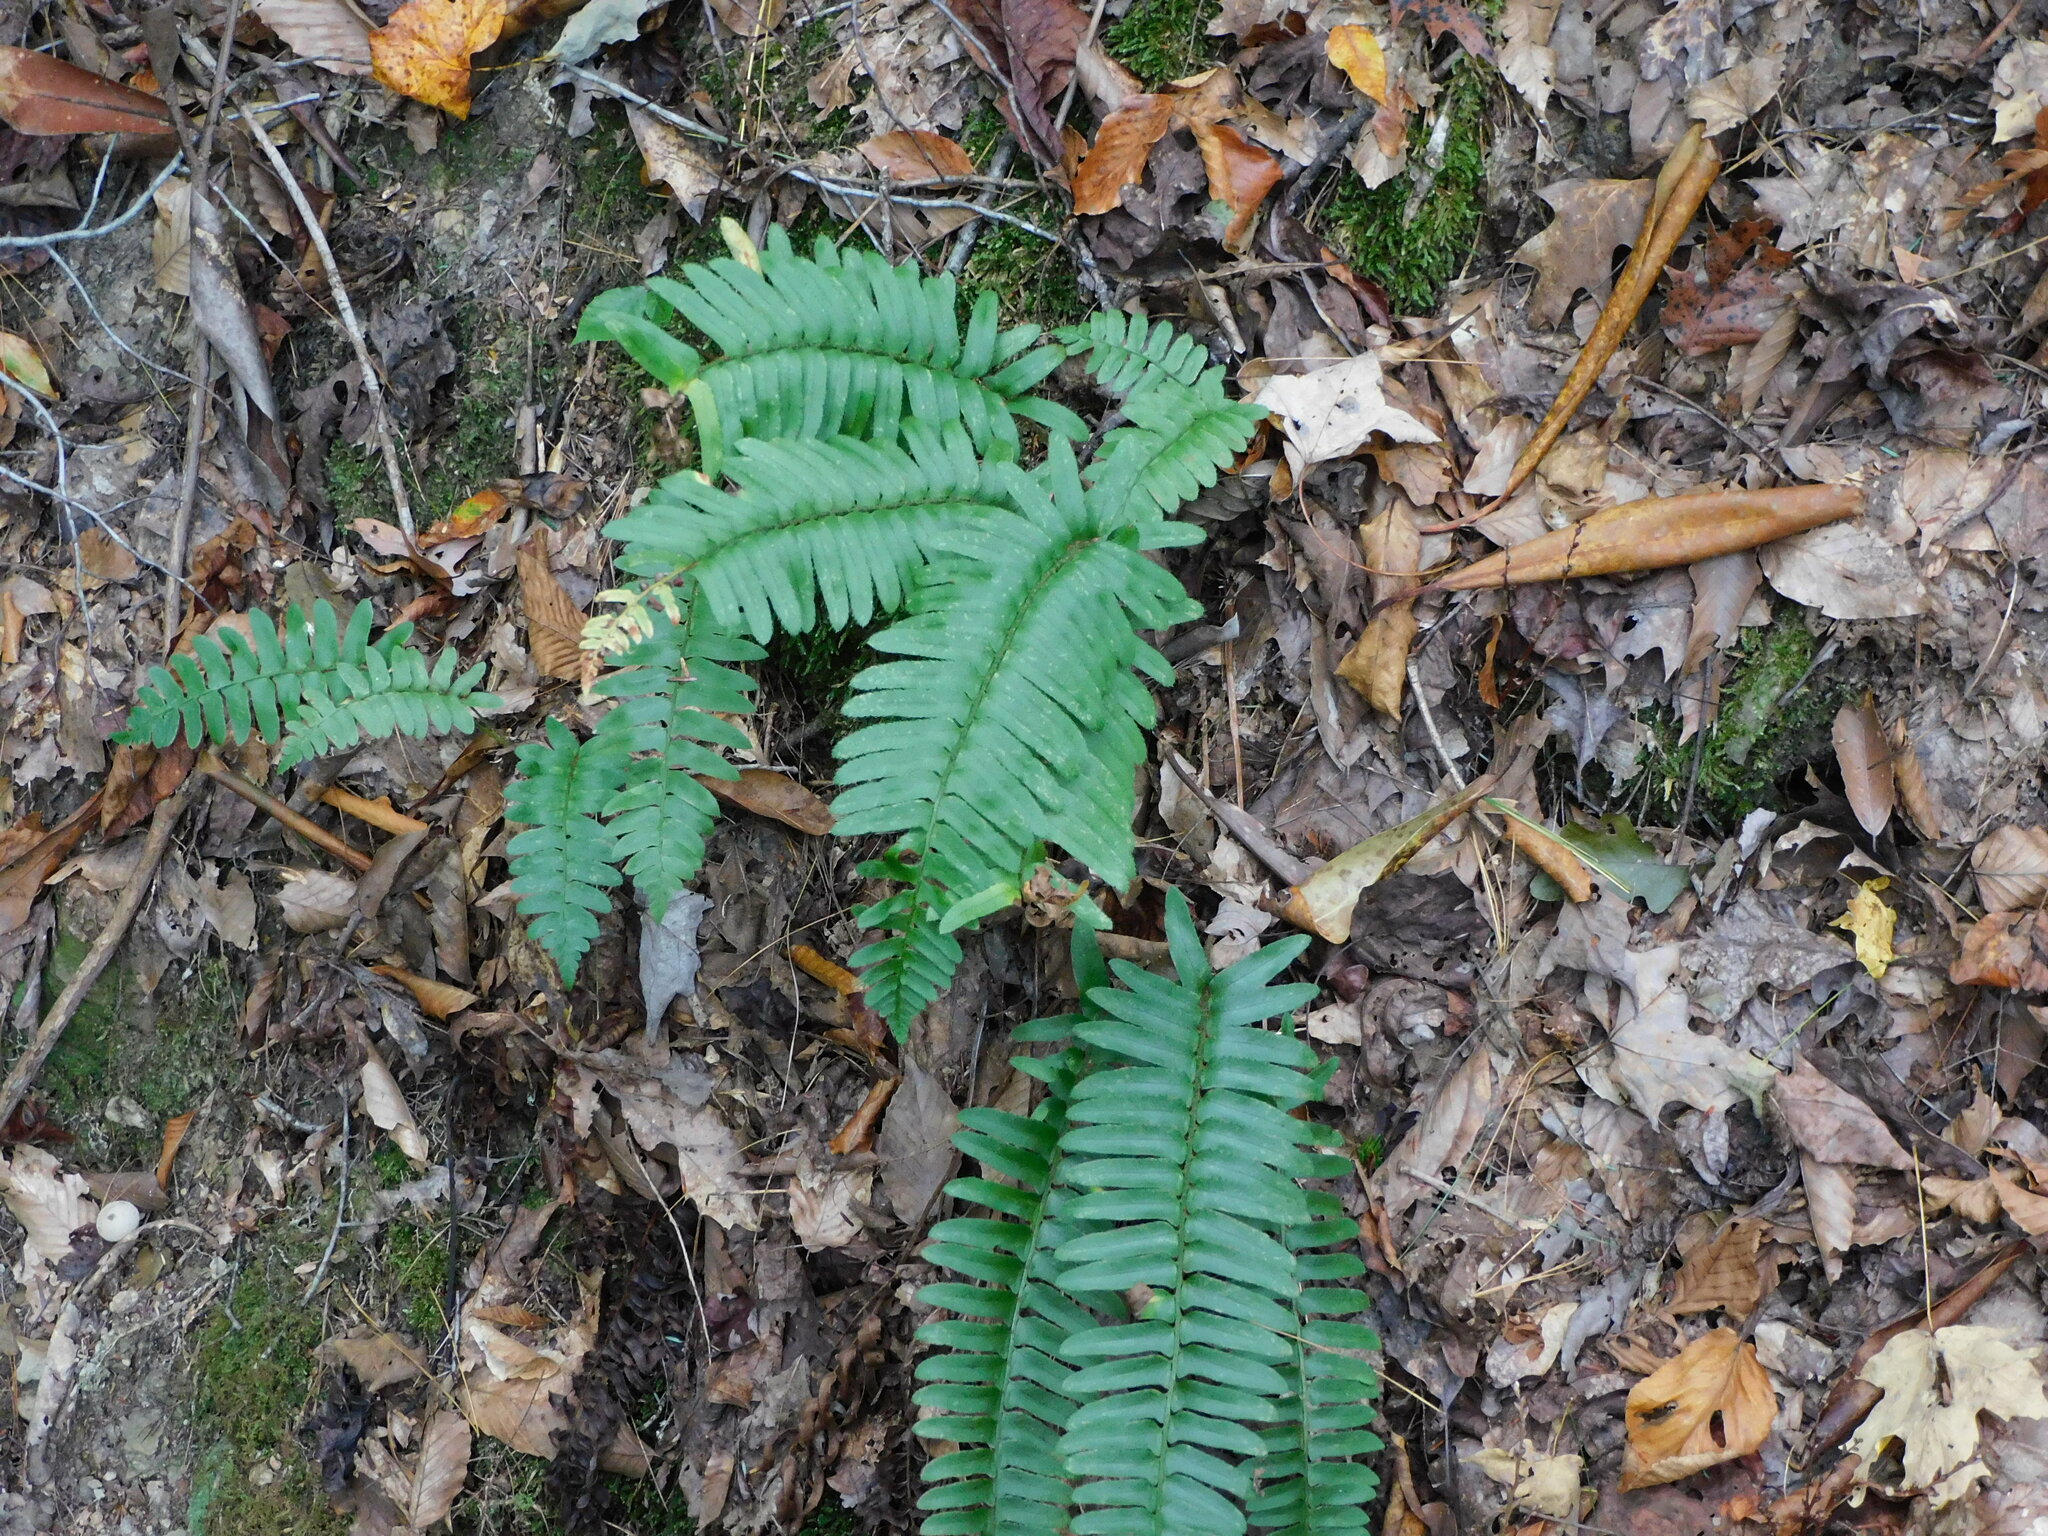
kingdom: Plantae
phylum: Tracheophyta
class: Polypodiopsida
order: Polypodiales
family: Dryopteridaceae
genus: Polystichum
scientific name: Polystichum acrostichoides
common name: Christmas fern
